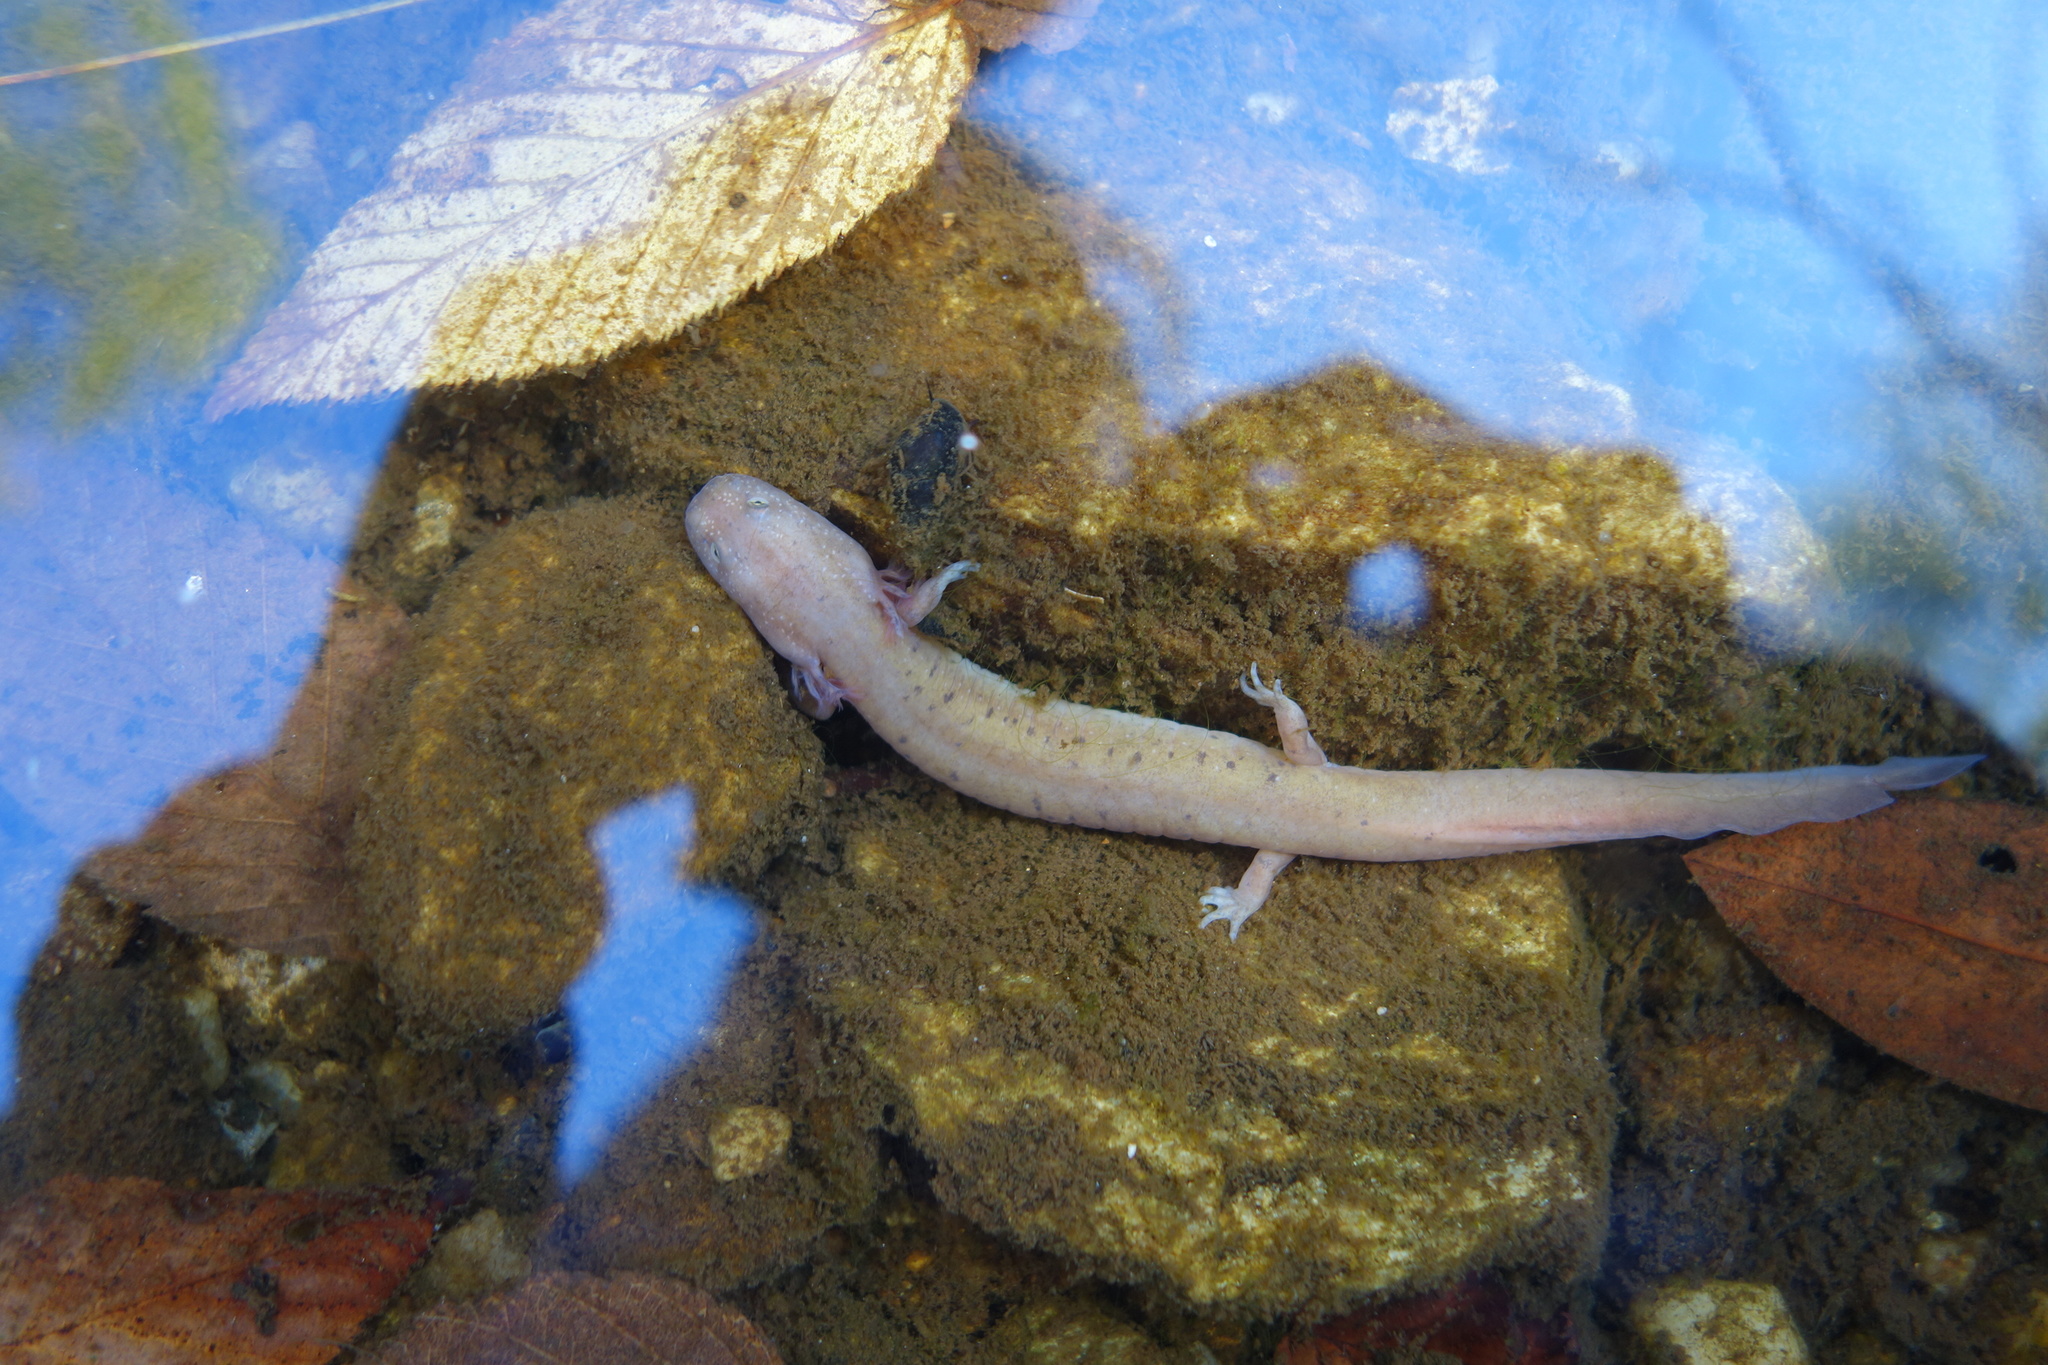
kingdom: Animalia
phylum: Chordata
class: Amphibia
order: Caudata
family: Plethodontidae
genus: Gyrinophilus
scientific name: Gyrinophilus porphyriticus
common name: Spring salamander
